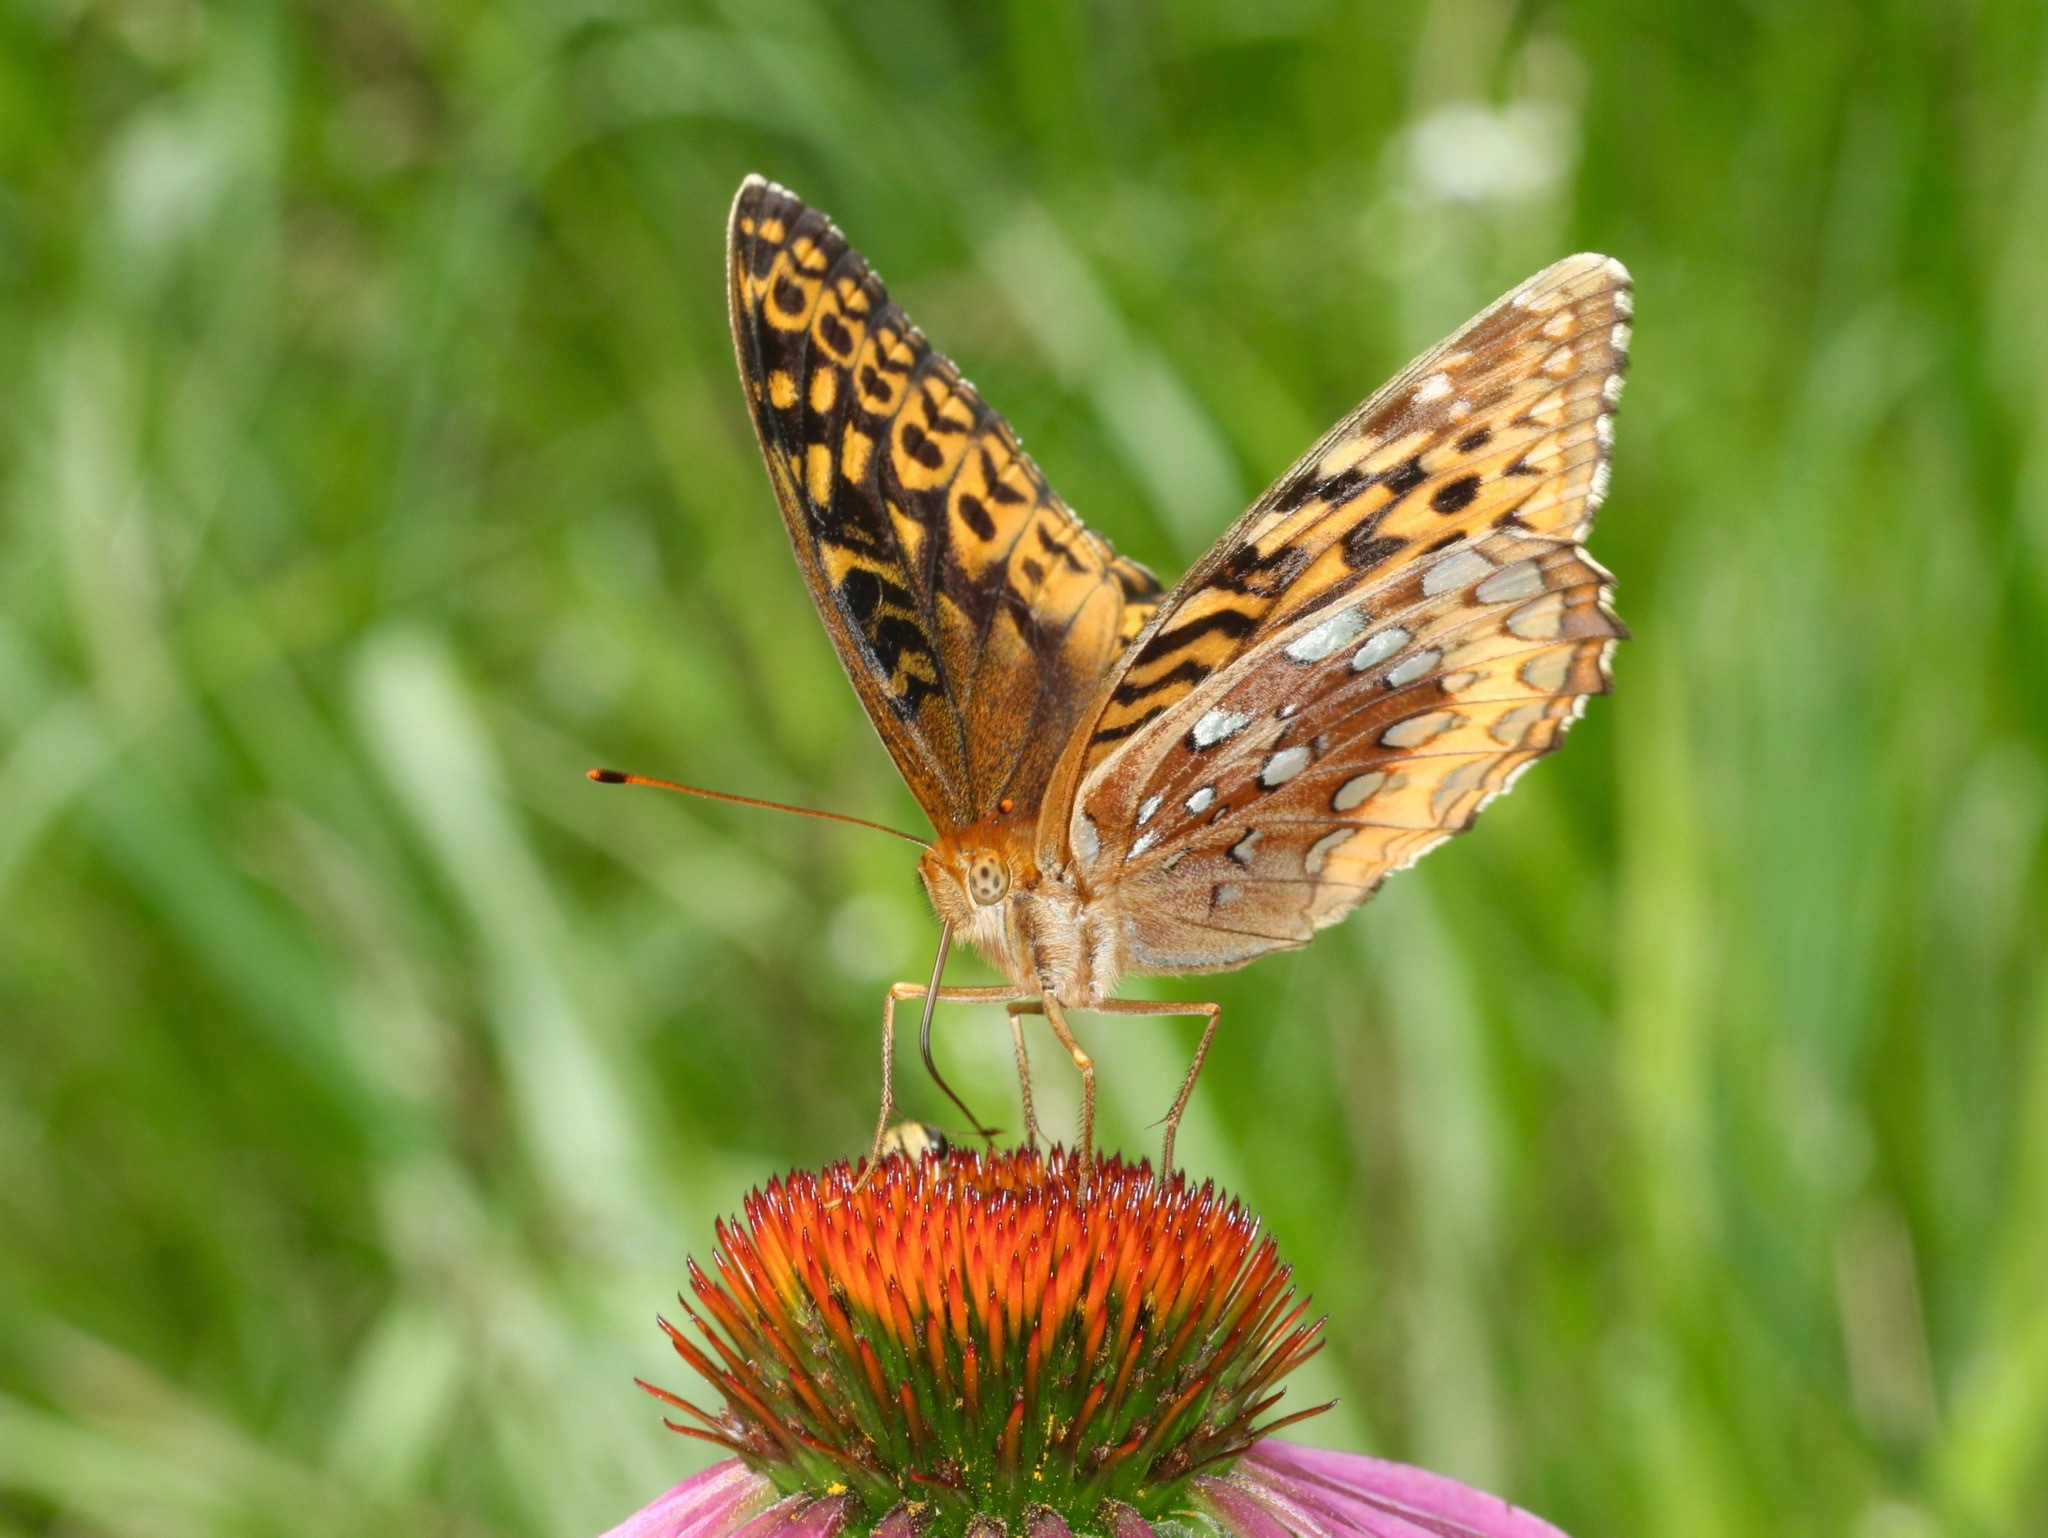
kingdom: Animalia
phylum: Arthropoda
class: Insecta
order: Lepidoptera
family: Nymphalidae
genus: Speyeria
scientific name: Speyeria cybele
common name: Great spangled fritillary
